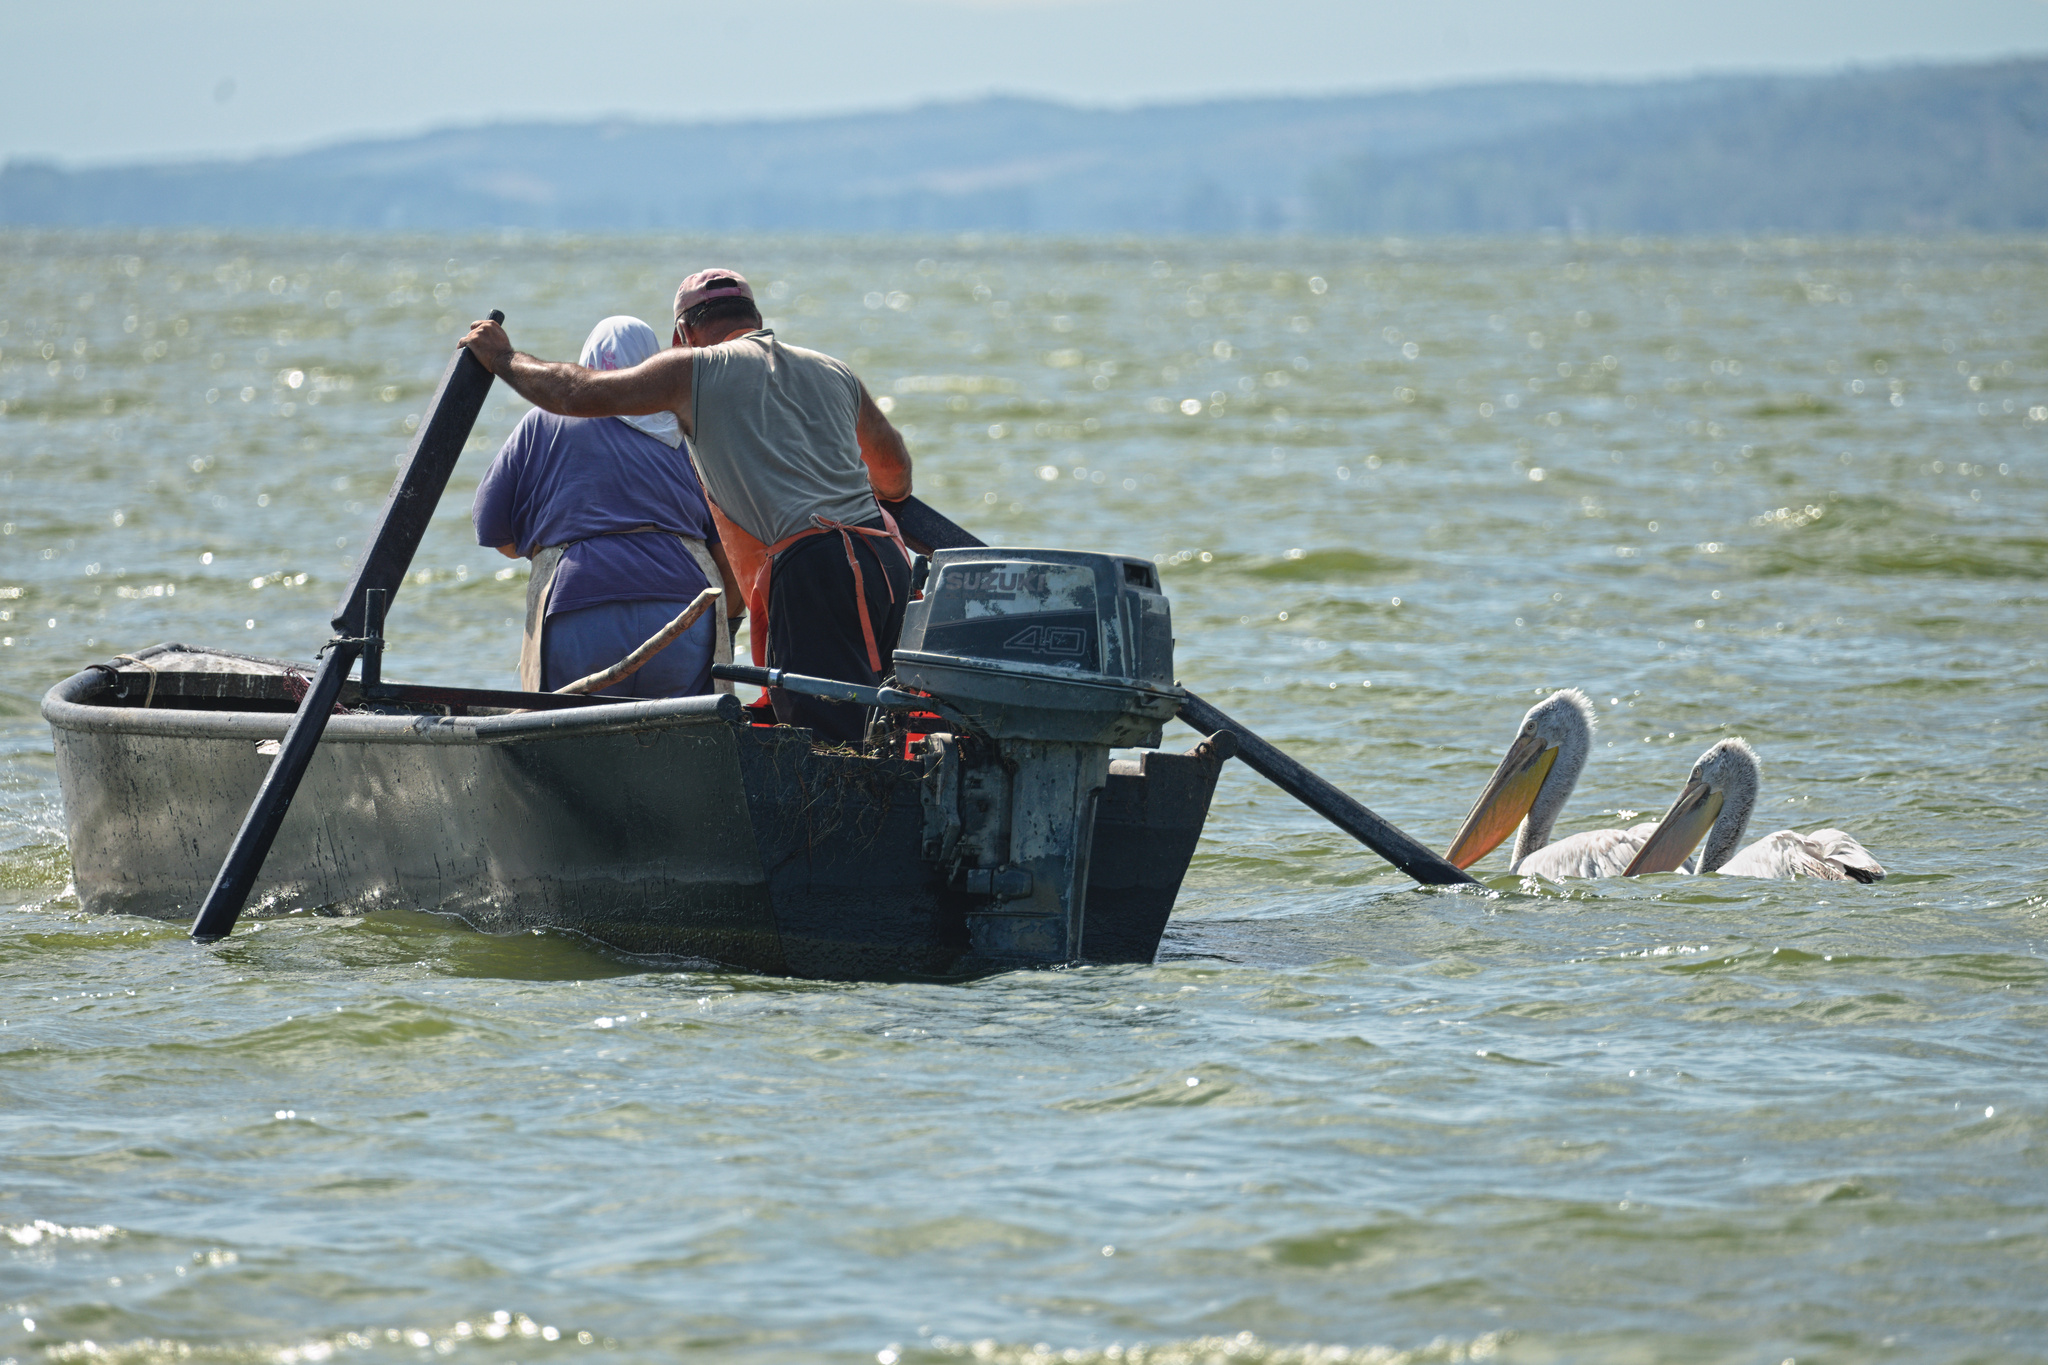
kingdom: Animalia
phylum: Chordata
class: Aves
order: Pelecaniformes
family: Pelecanidae
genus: Pelecanus
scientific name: Pelecanus crispus
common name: Dalmatian pelican
